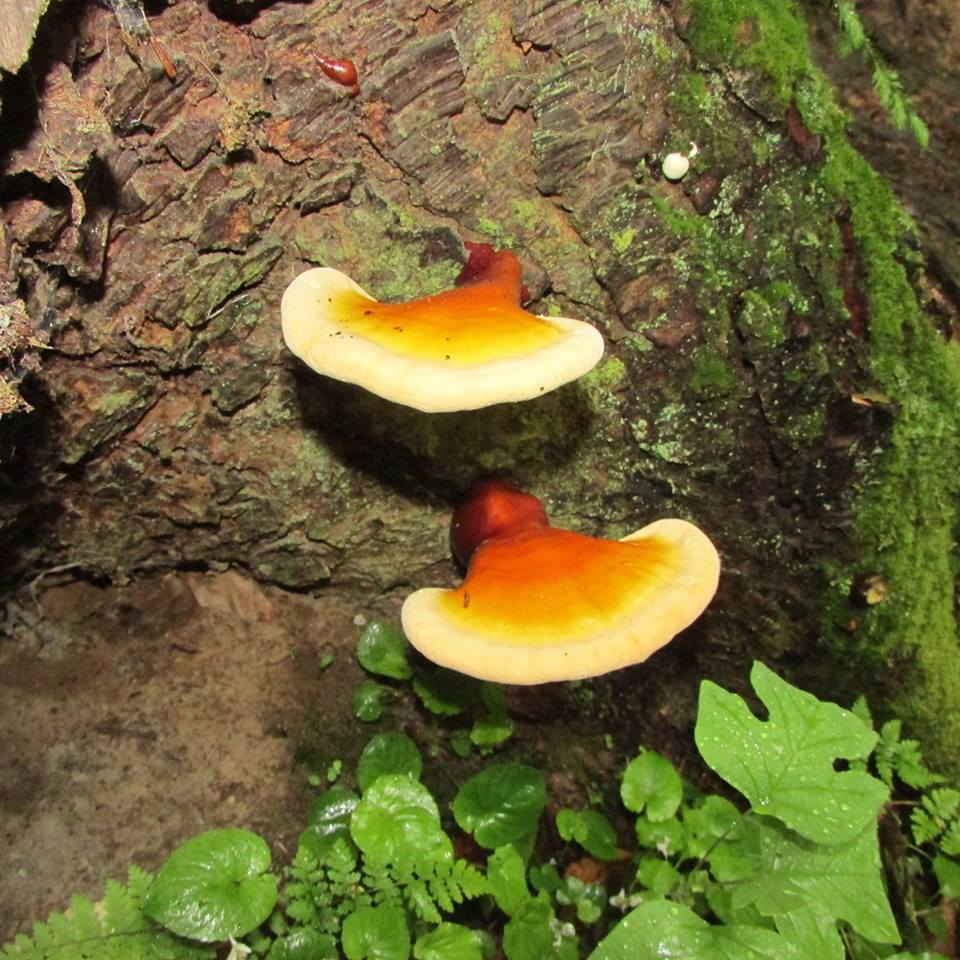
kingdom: Fungi
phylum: Basidiomycota
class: Agaricomycetes
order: Polyporales
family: Polyporaceae
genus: Ganoderma
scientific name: Ganoderma tsugae
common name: Hemlock varnish shelf
